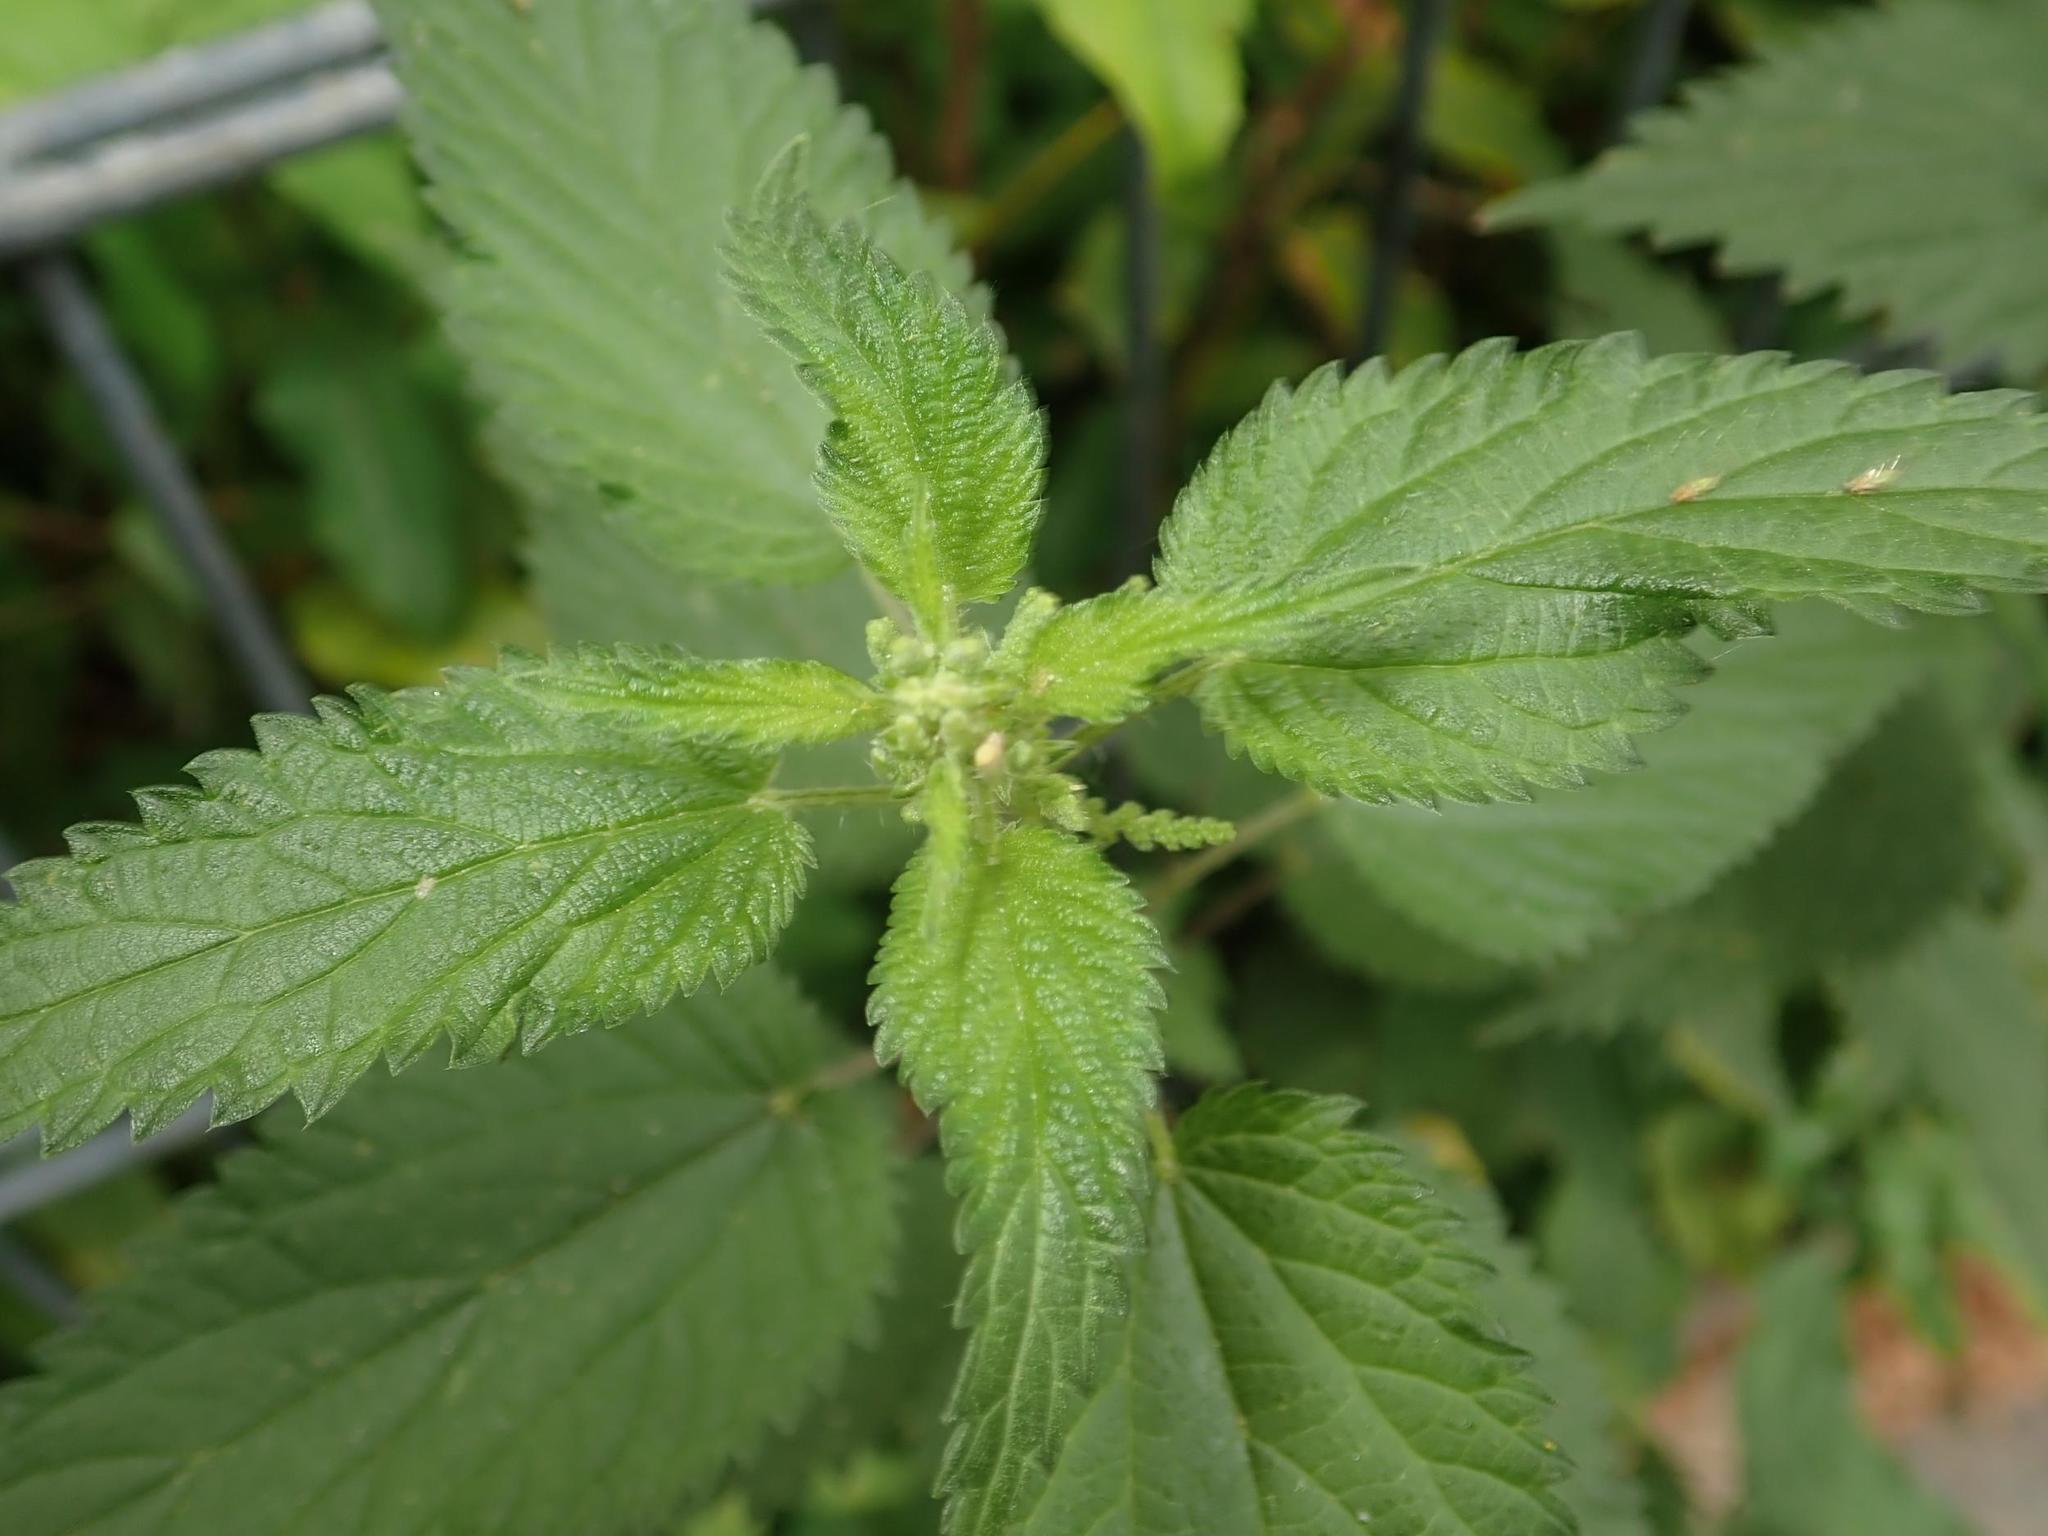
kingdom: Plantae
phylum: Tracheophyta
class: Magnoliopsida
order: Rosales
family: Urticaceae
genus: Urtica
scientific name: Urtica dioica
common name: Common nettle
